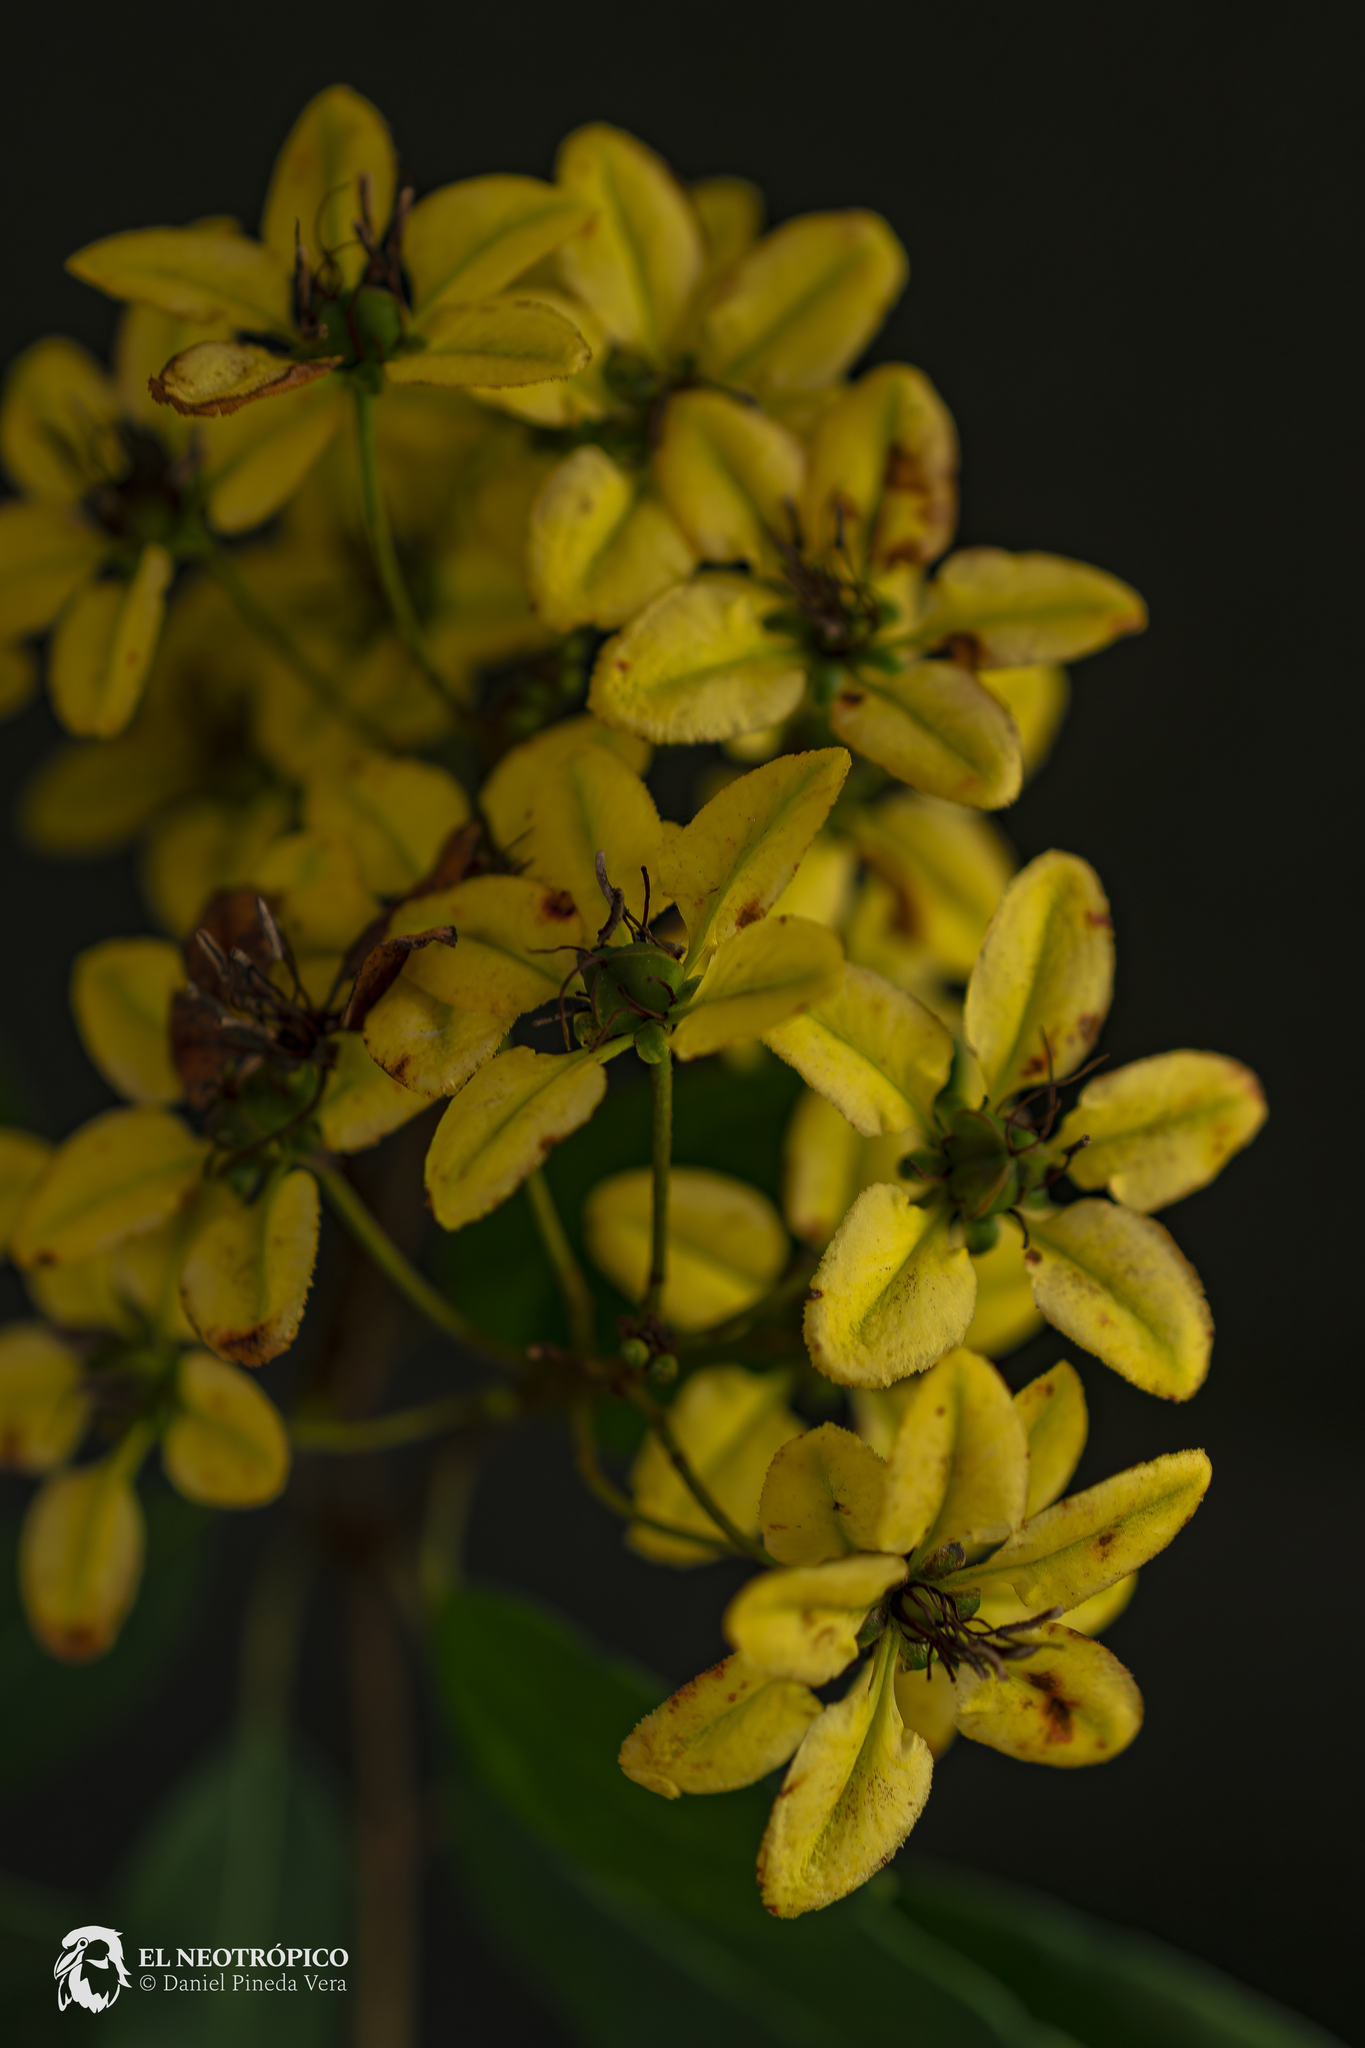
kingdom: Plantae
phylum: Tracheophyta
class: Magnoliopsida
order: Malpighiales
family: Malpighiaceae
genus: Galphimia
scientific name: Galphimia glauca
